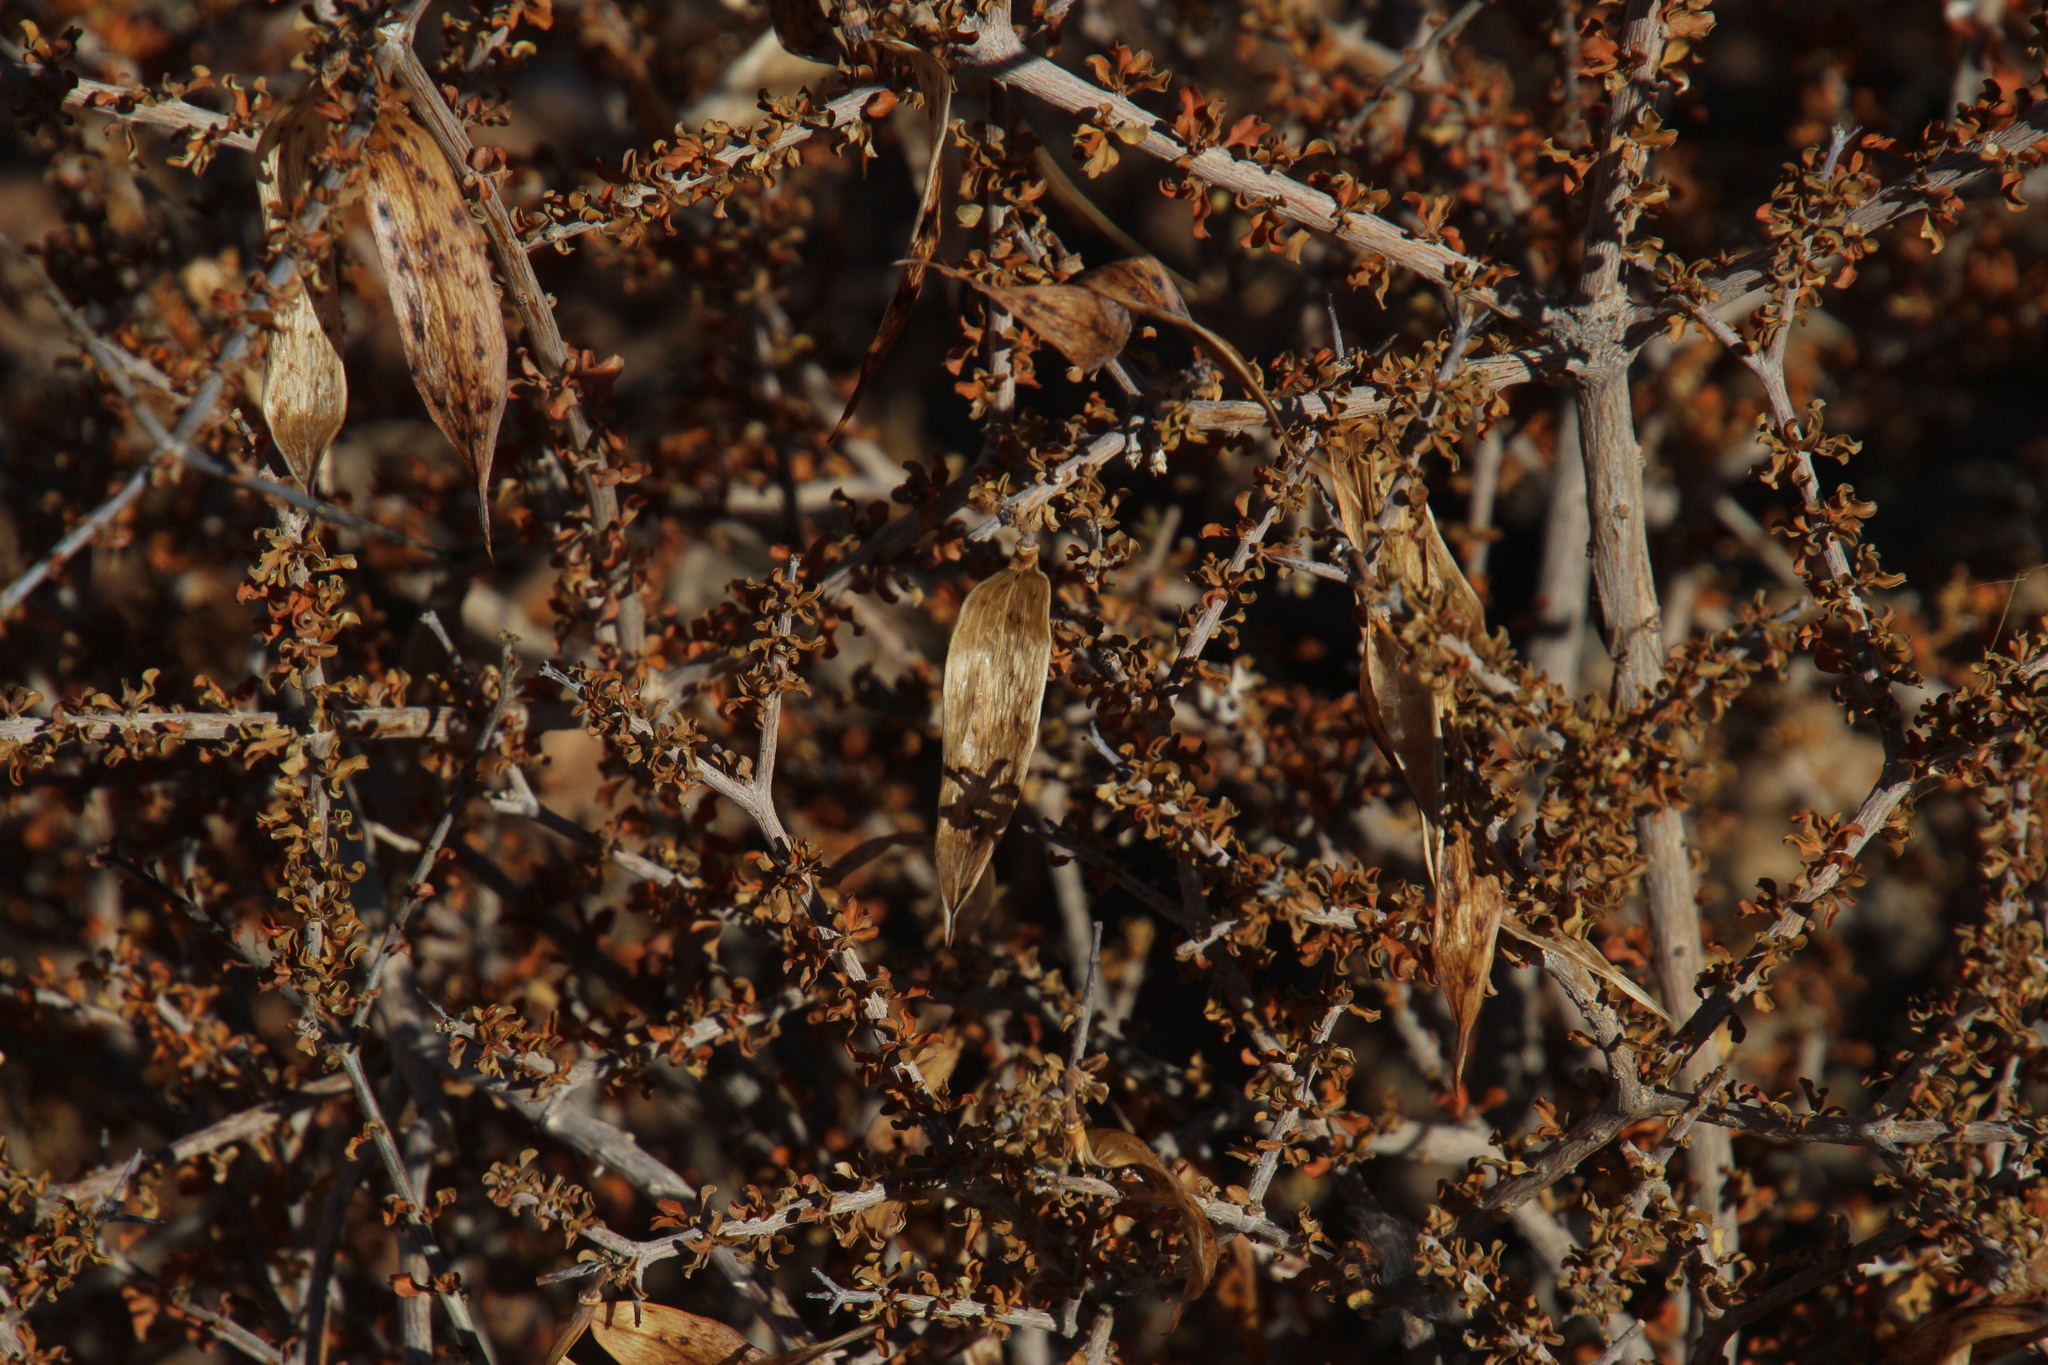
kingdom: Plantae
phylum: Tracheophyta
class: Magnoliopsida
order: Lamiales
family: Bignoniaceae
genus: Rhigozum
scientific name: Rhigozum trichotomum
